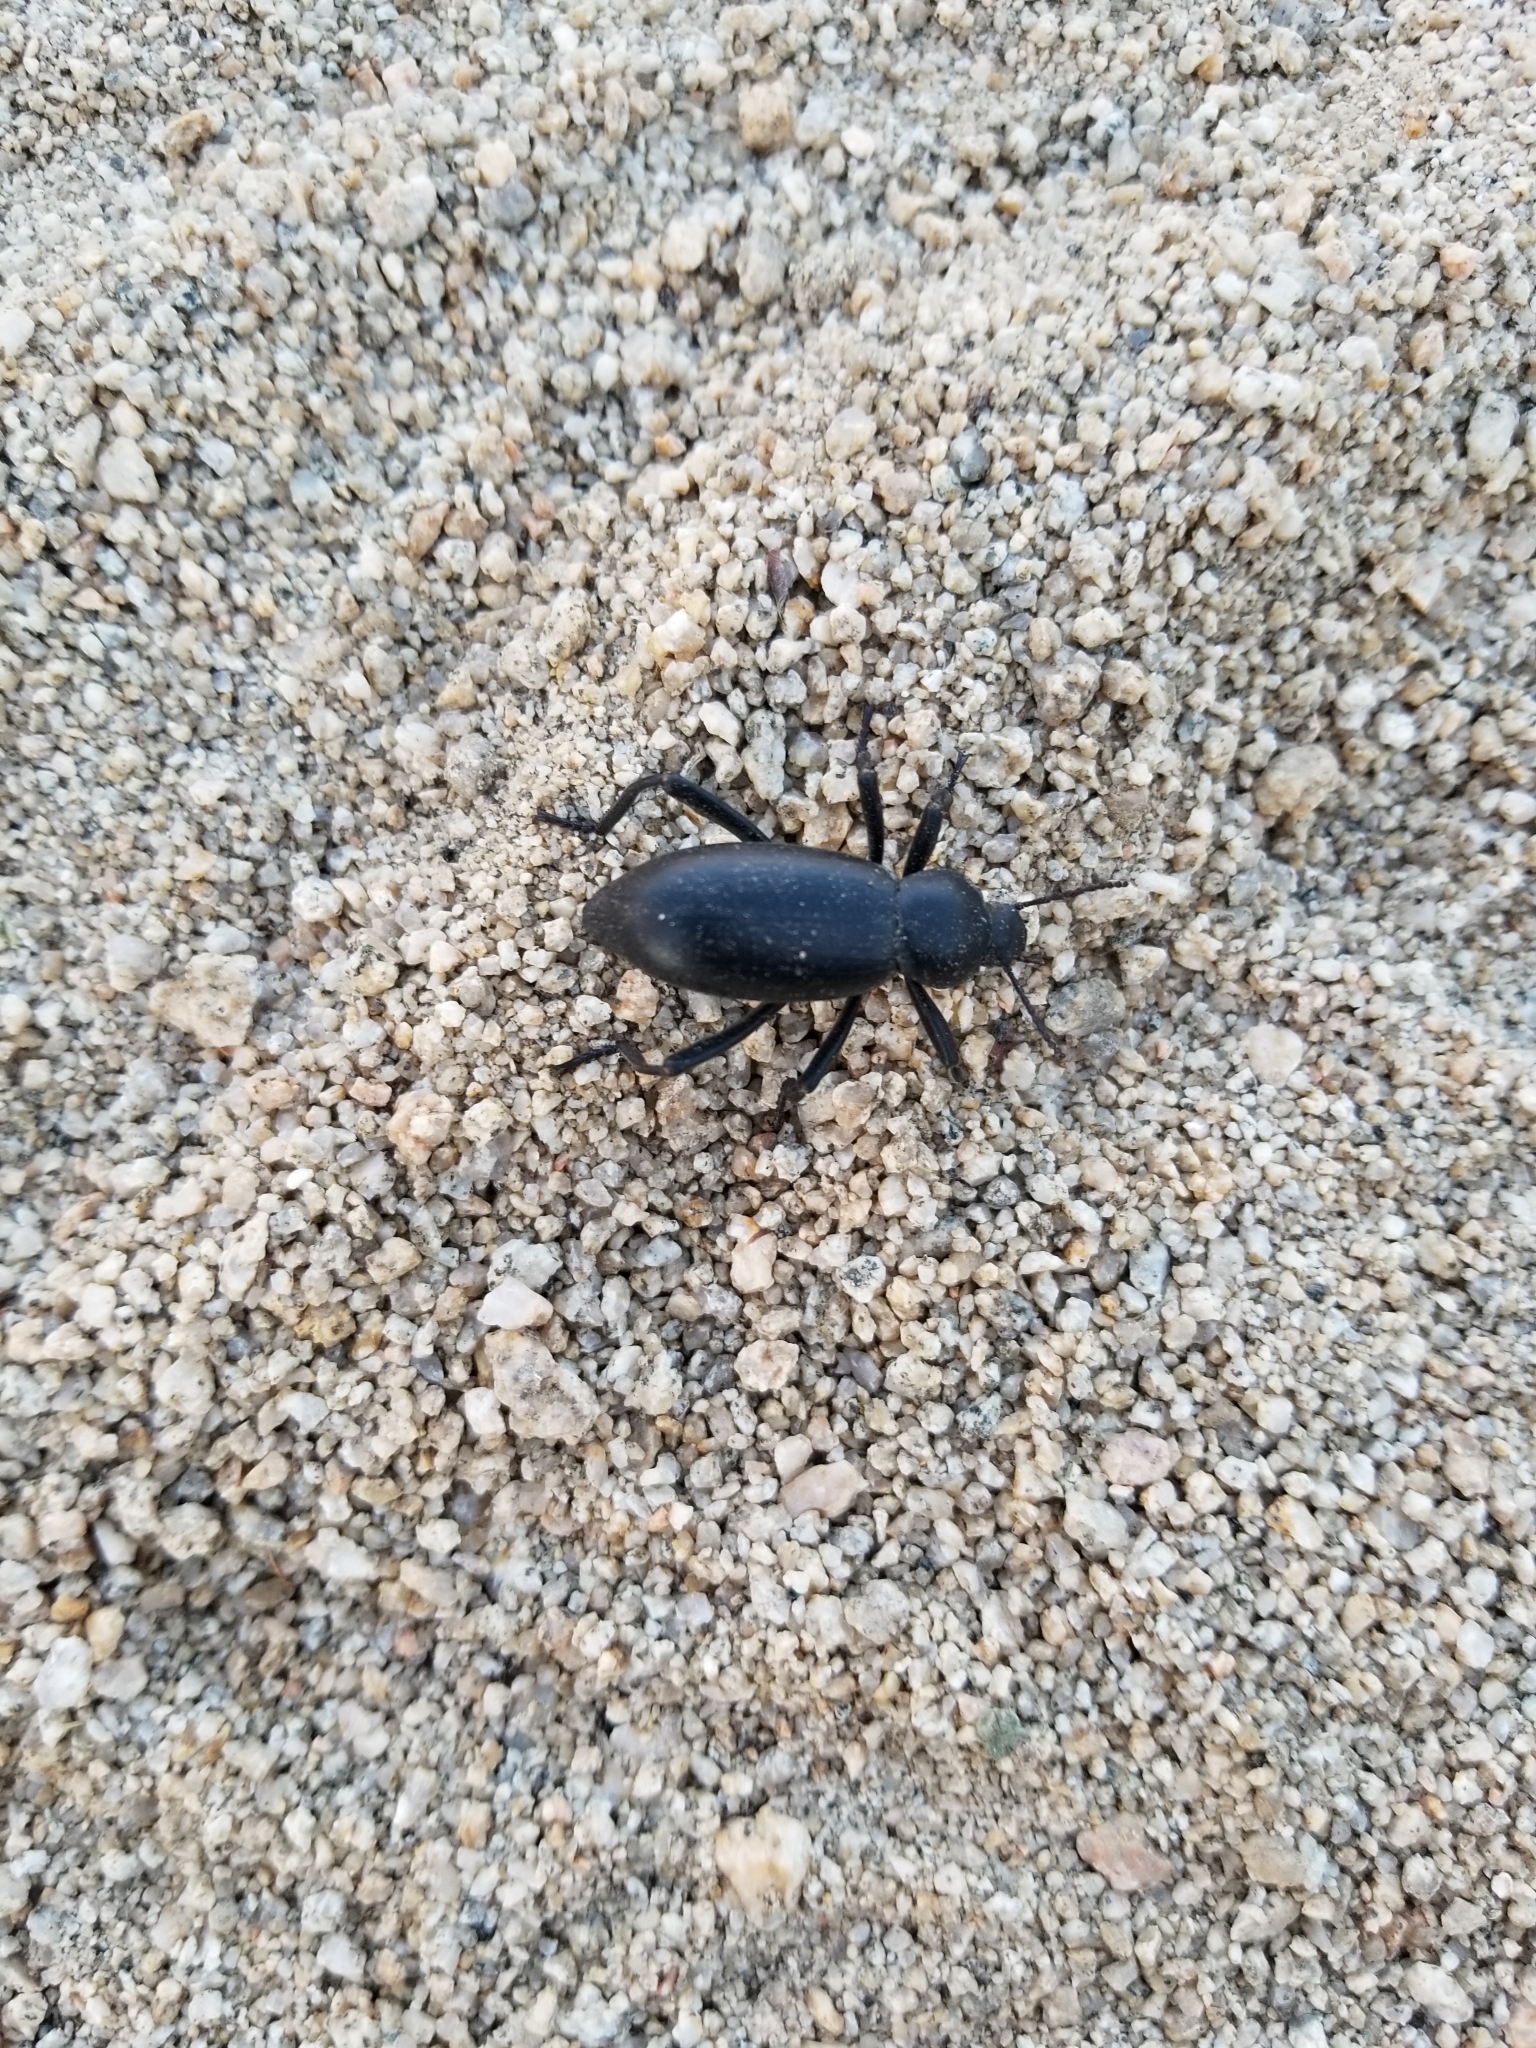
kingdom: Animalia
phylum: Arthropoda
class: Insecta
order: Coleoptera
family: Tenebrionidae
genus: Eleodes
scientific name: Eleodes armata
